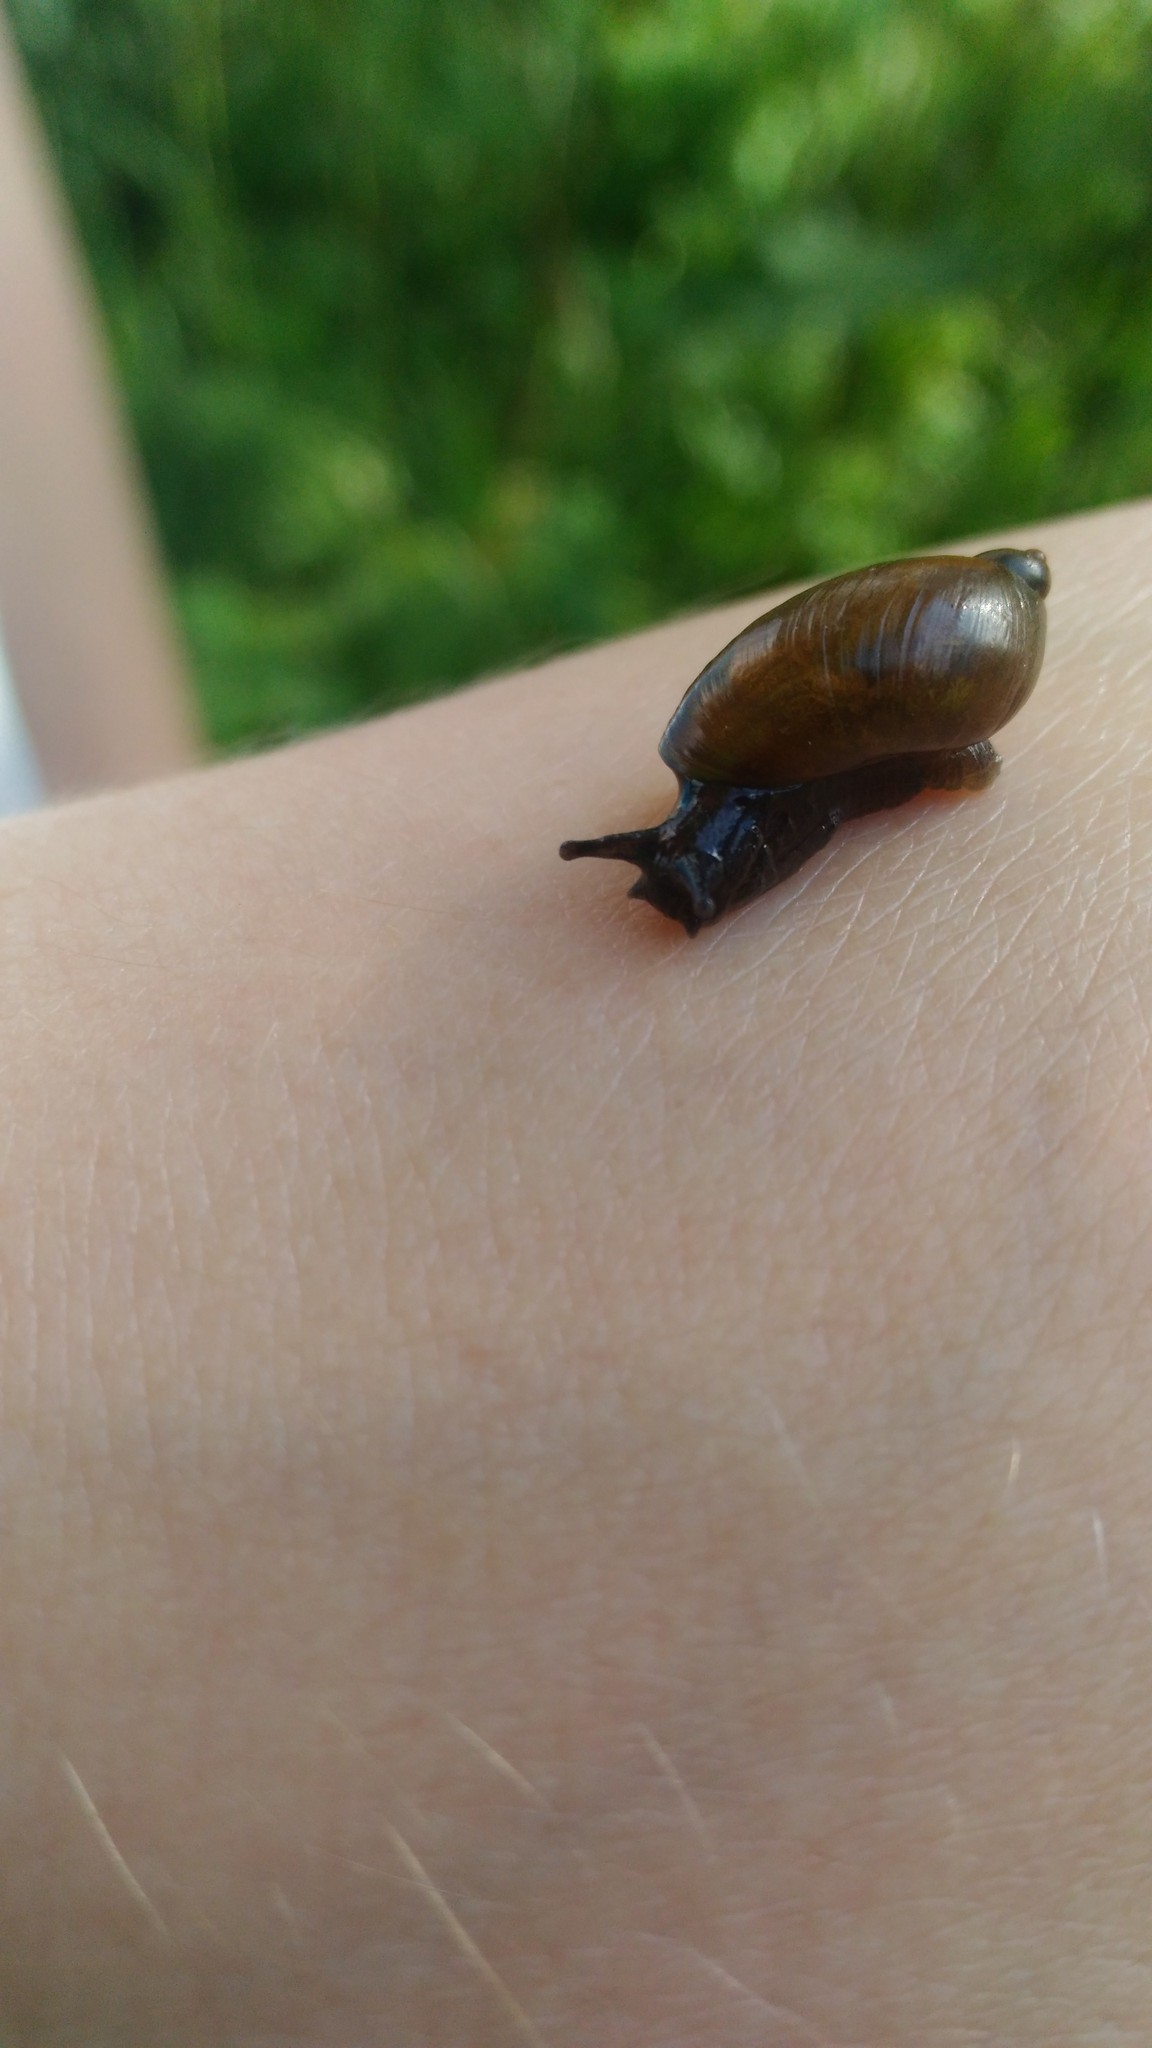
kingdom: Animalia
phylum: Mollusca
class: Gastropoda
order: Stylommatophora
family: Succineidae
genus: Succinea
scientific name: Succinea putris
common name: European ambersnail
